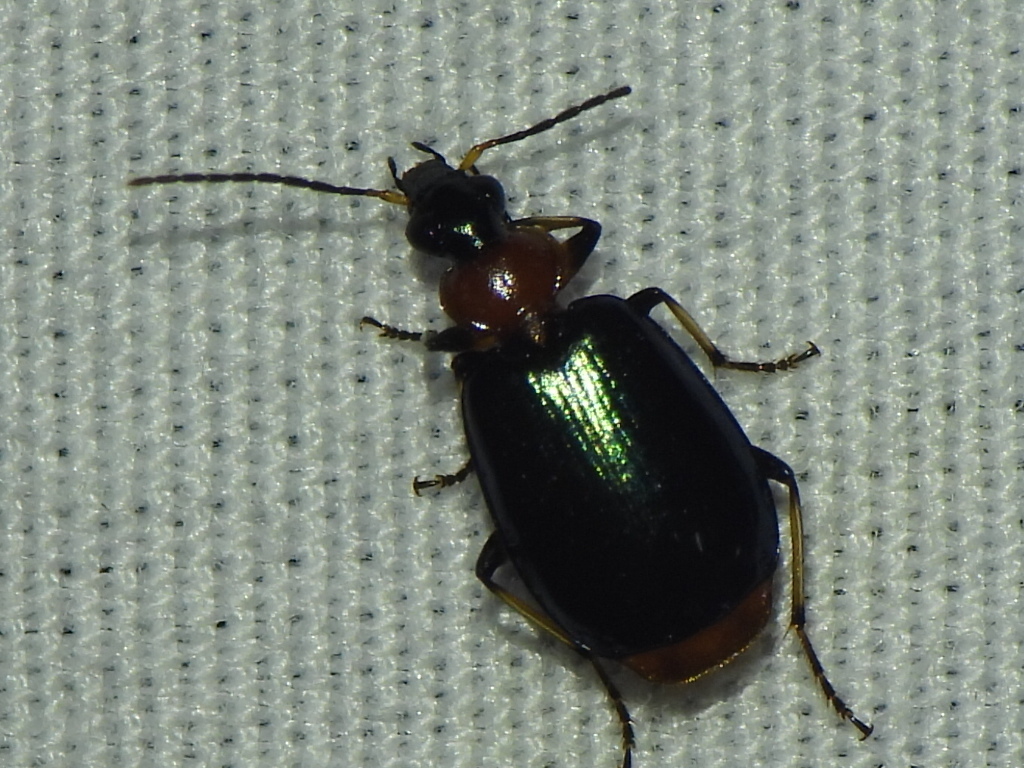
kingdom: Animalia
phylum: Arthropoda
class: Insecta
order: Coleoptera
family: Carabidae
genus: Lebia
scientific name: Lebia viridipennis
